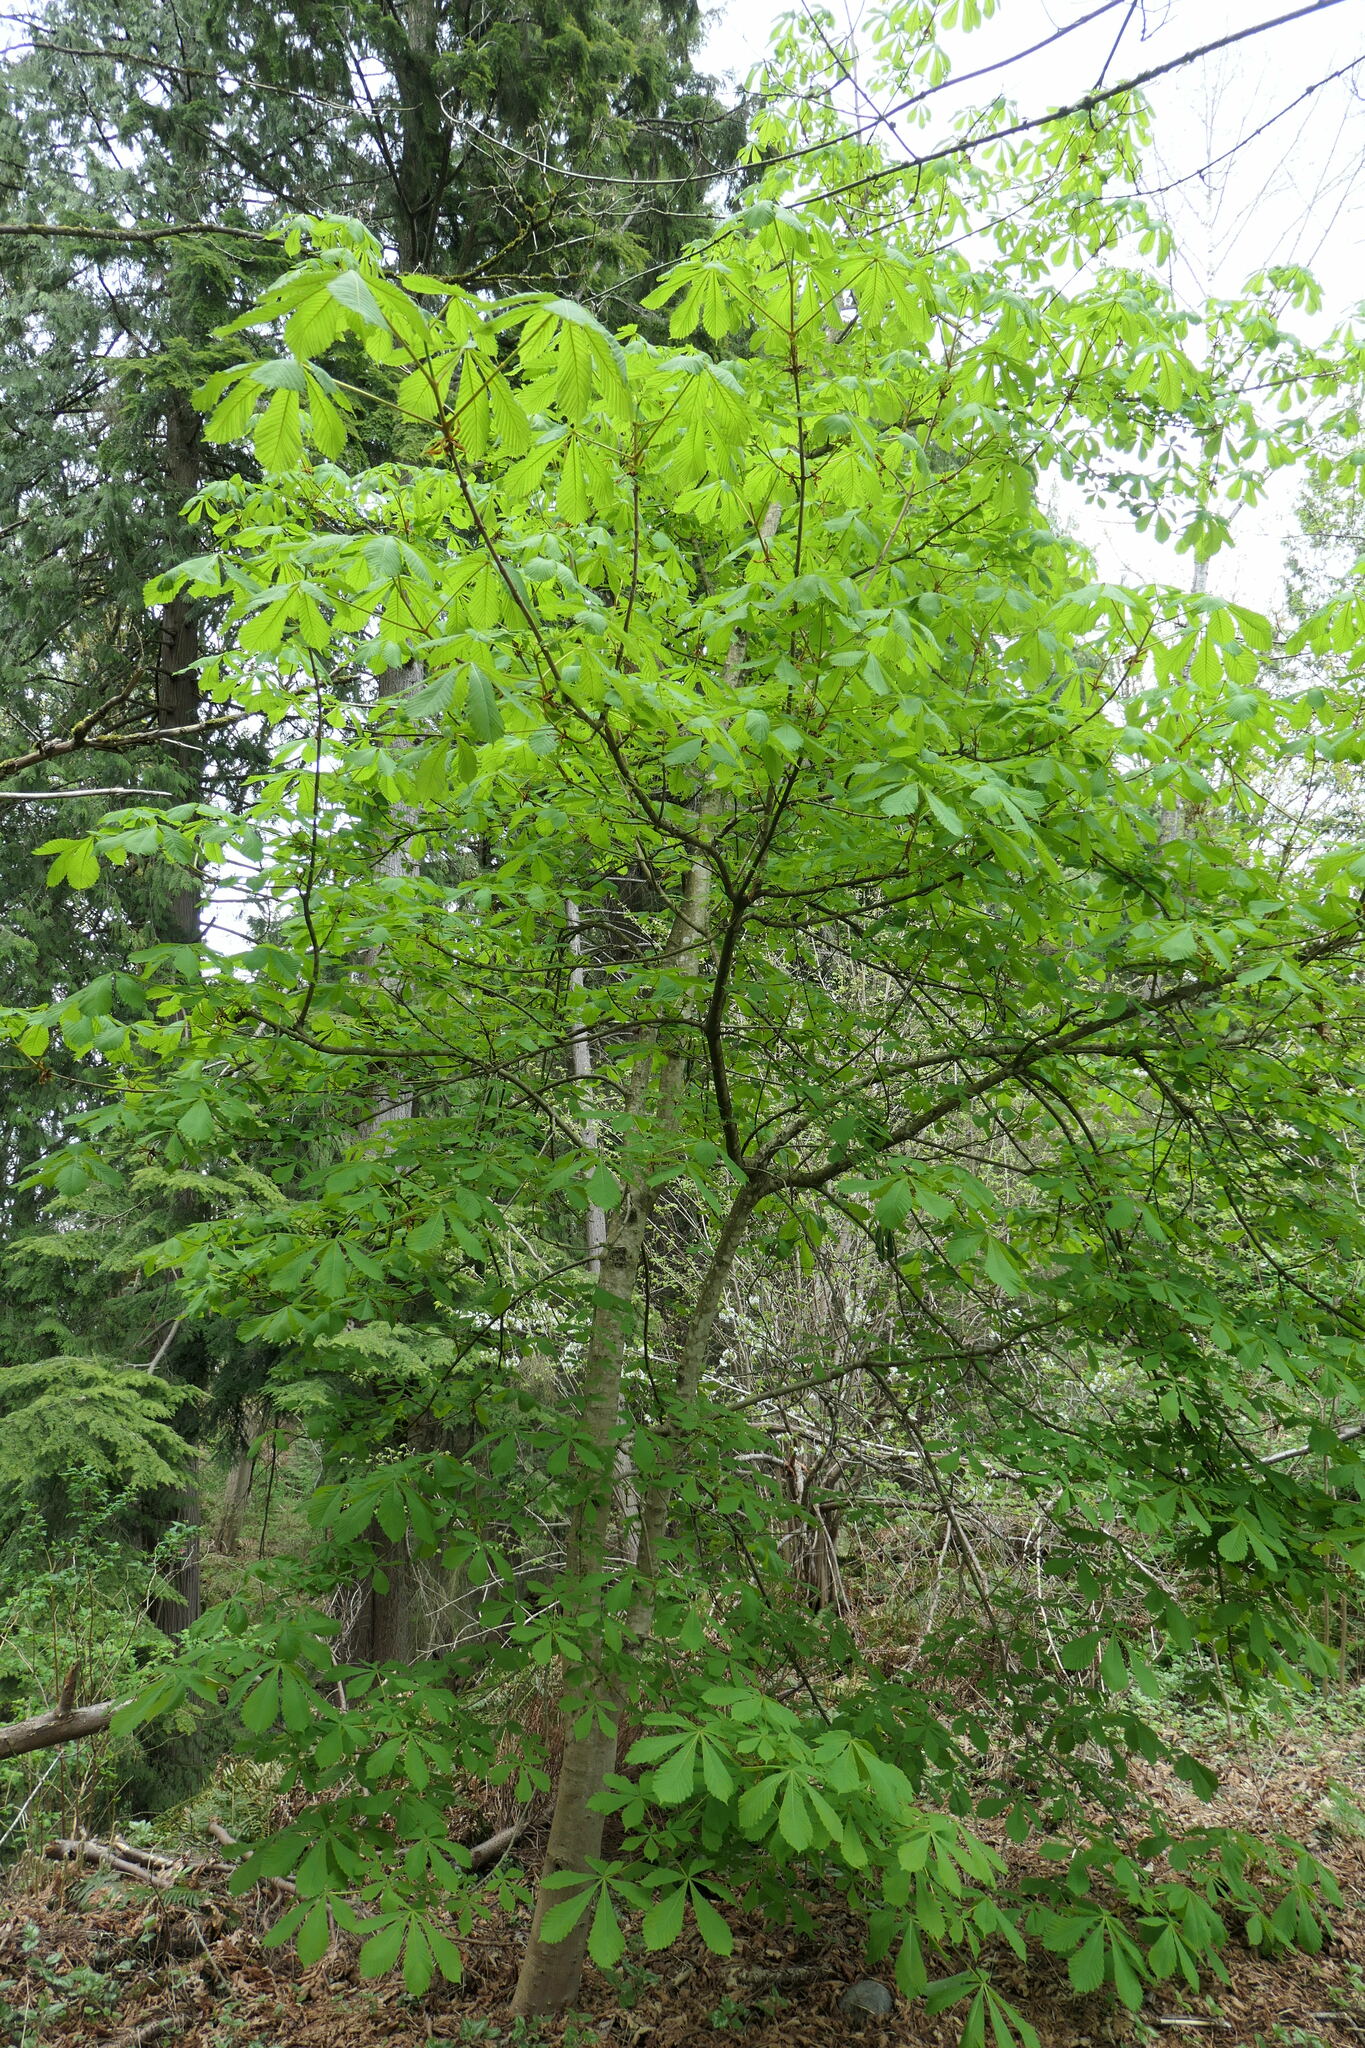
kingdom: Plantae
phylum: Tracheophyta
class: Magnoliopsida
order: Sapindales
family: Sapindaceae
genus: Aesculus
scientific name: Aesculus hippocastanum
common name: Horse-chestnut
